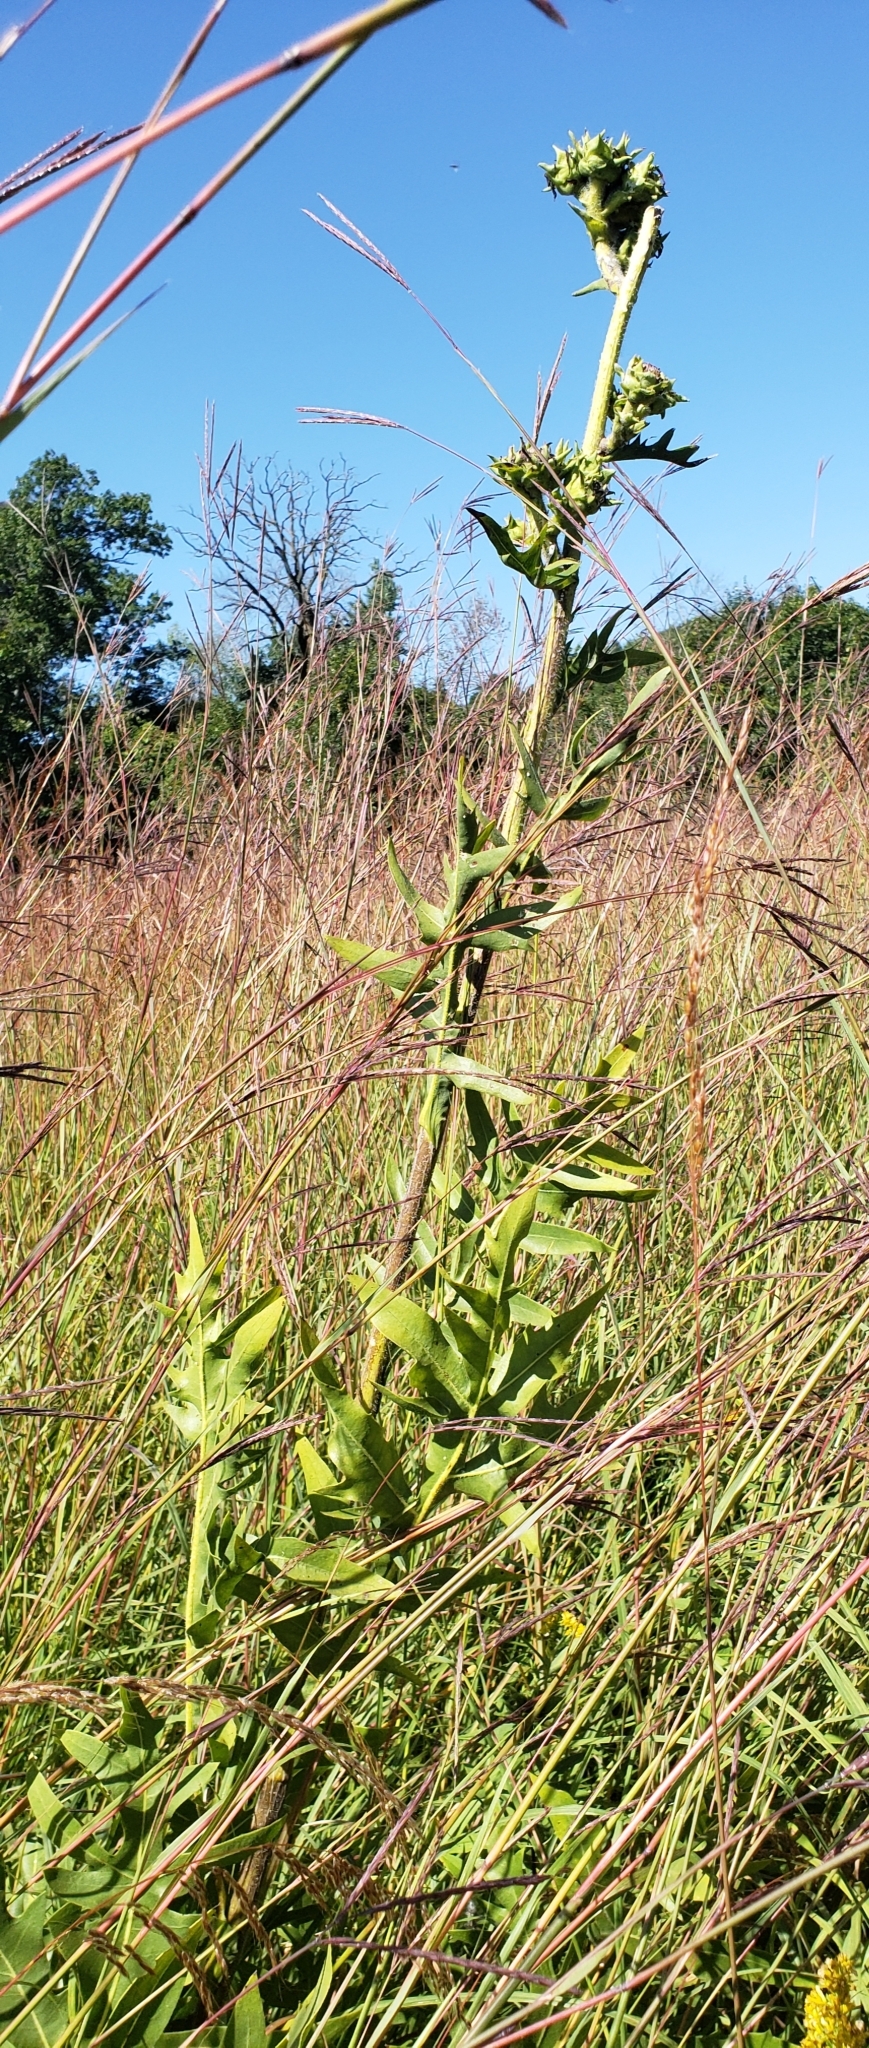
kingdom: Plantae
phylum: Tracheophyta
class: Magnoliopsida
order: Asterales
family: Asteraceae
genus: Silphium
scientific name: Silphium laciniatum
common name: Polarplant
